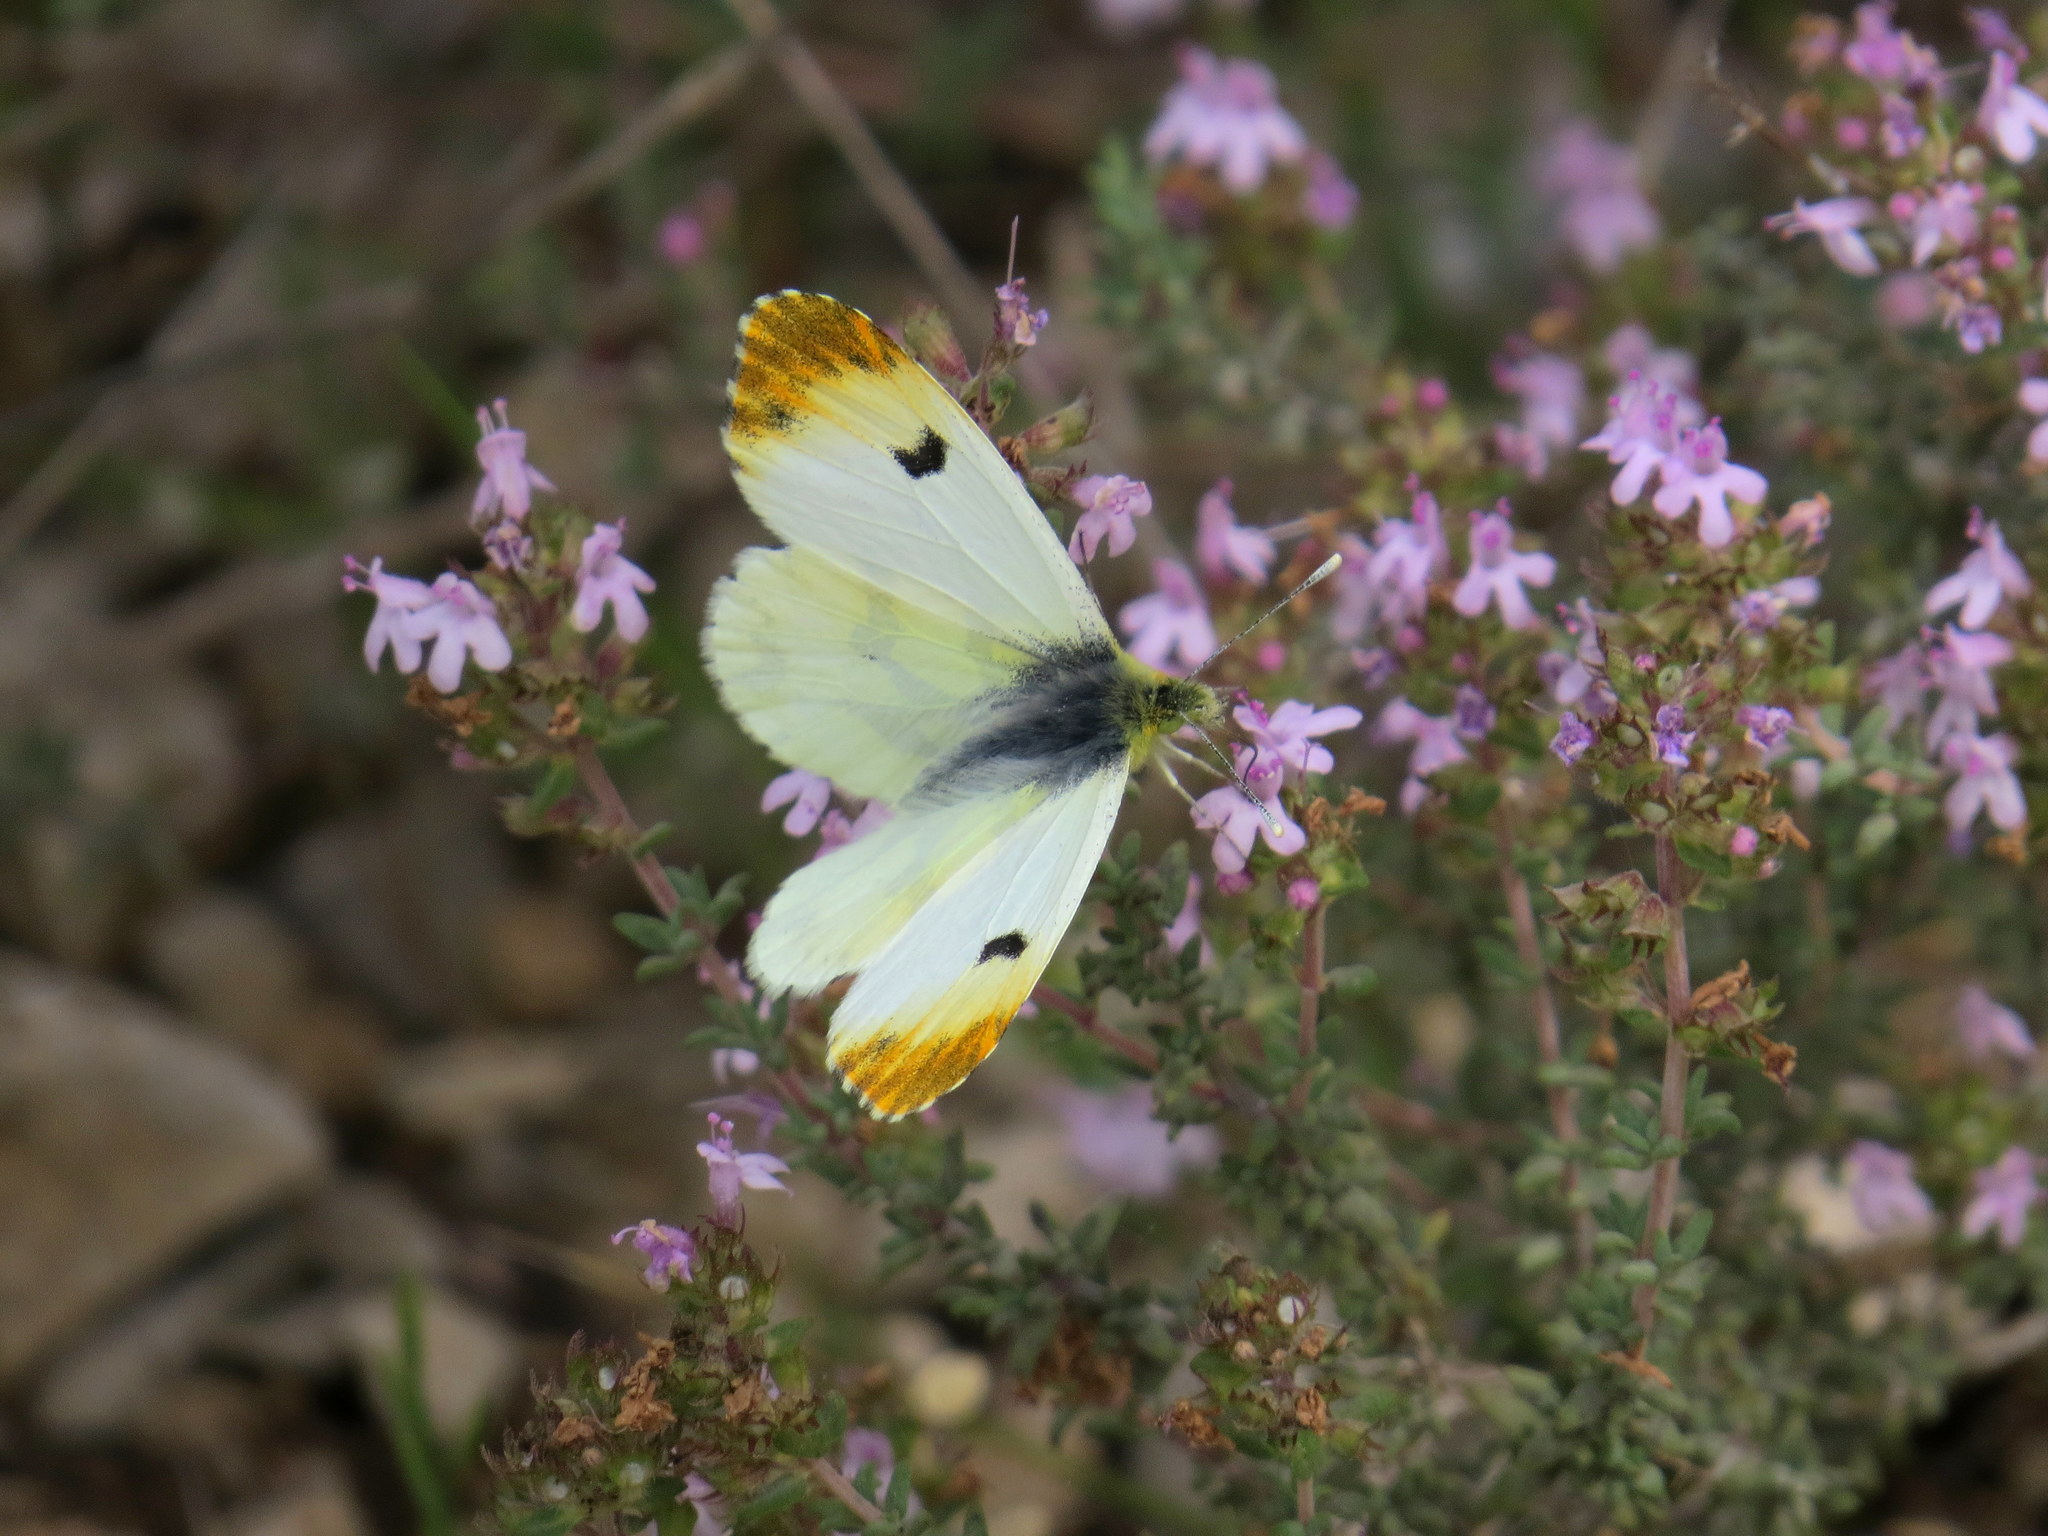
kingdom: Animalia
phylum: Arthropoda
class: Insecta
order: Lepidoptera
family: Pieridae
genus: Anthocharis
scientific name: Anthocharis euphenoides
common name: Provence orange-tip
